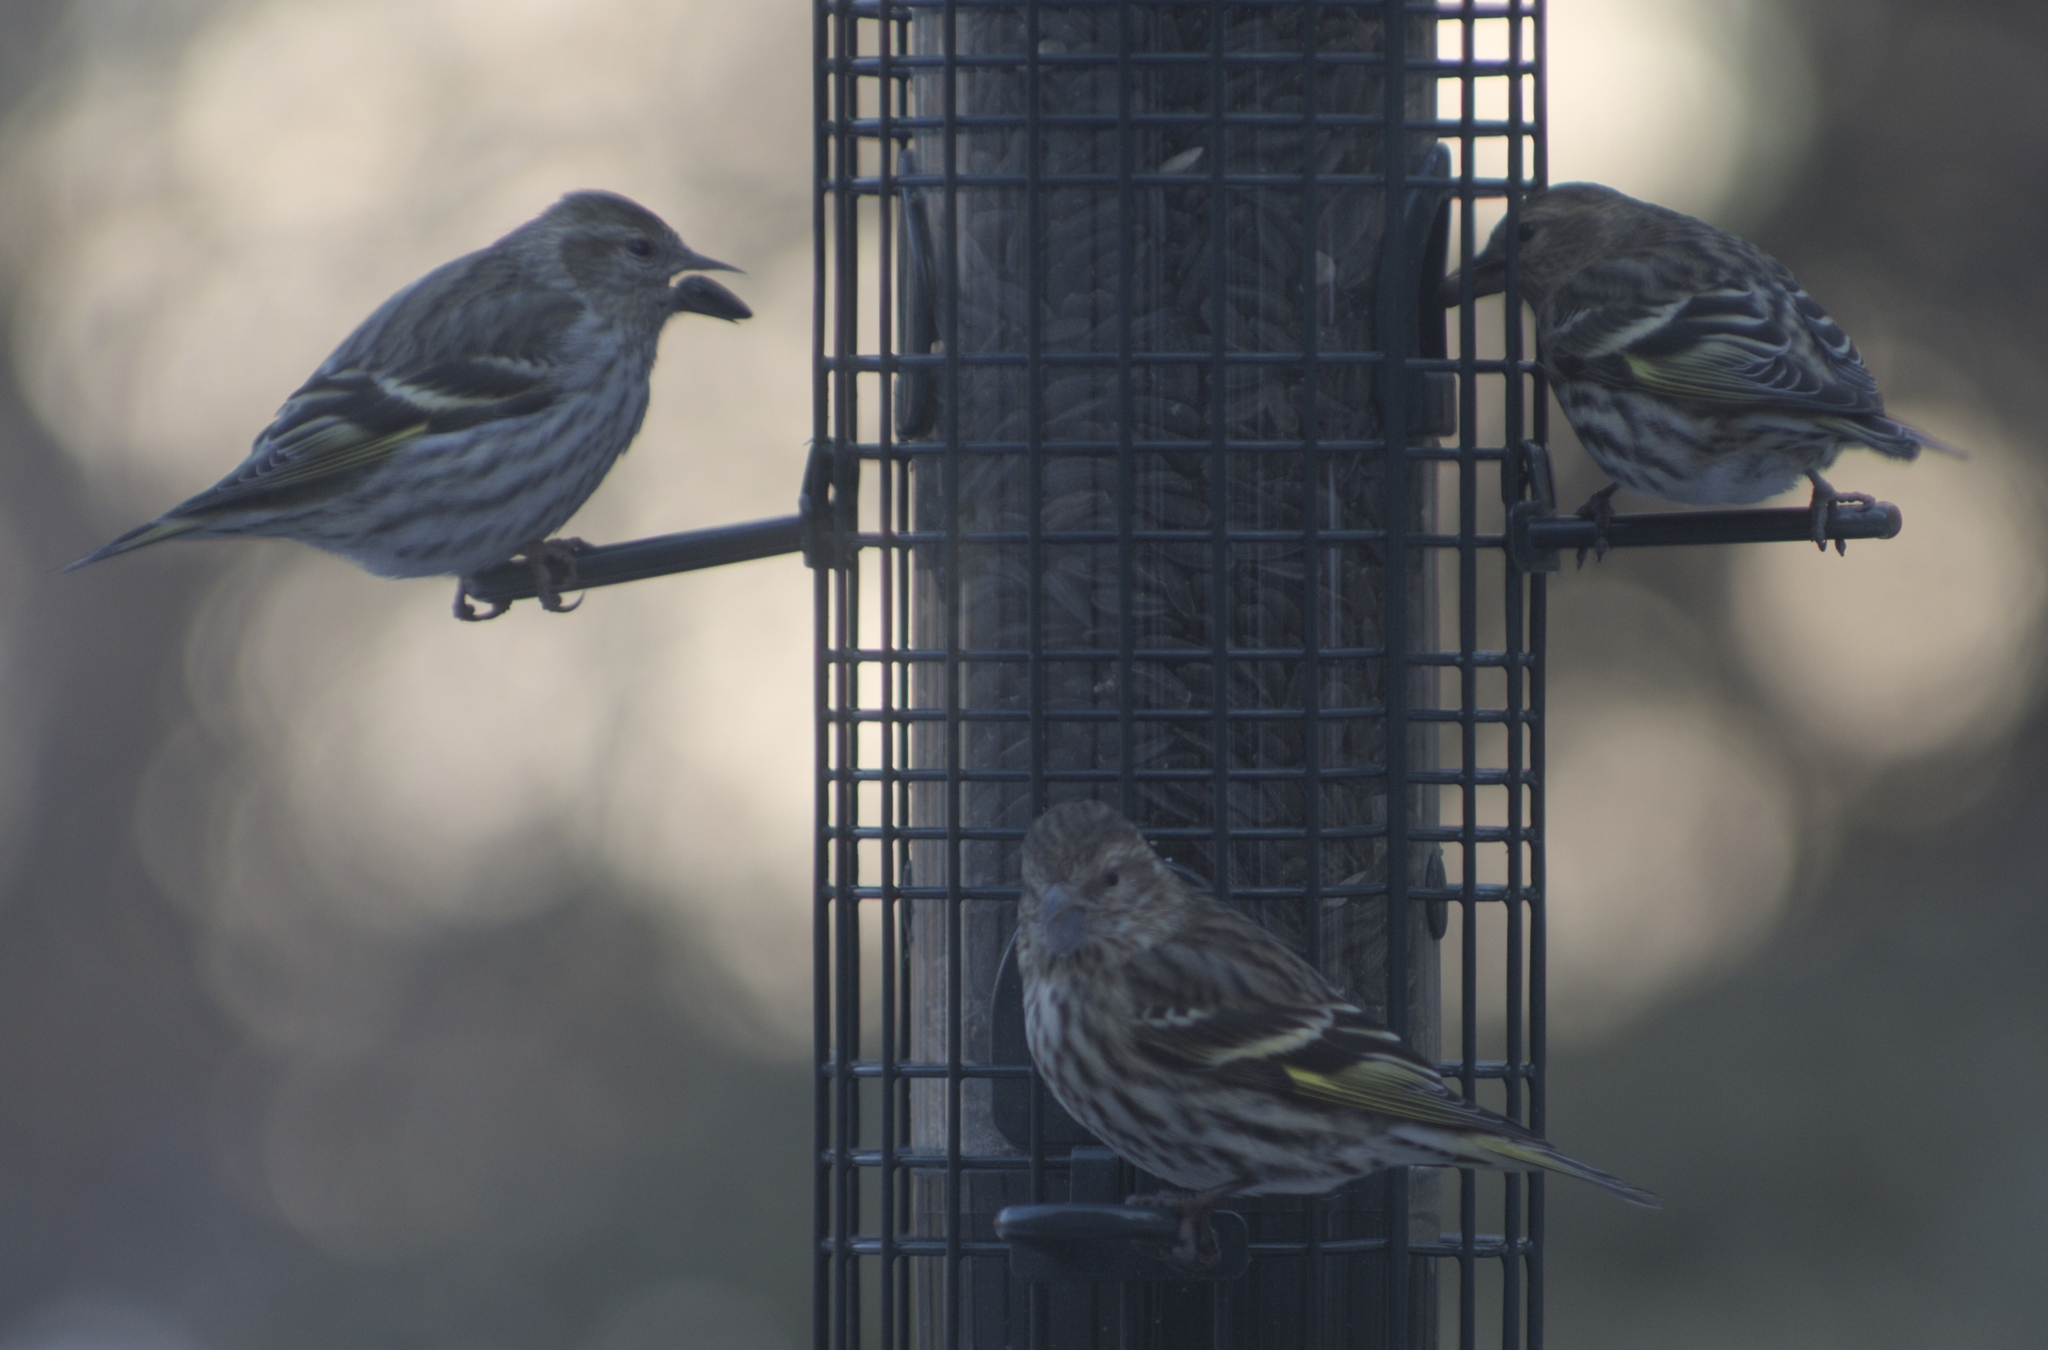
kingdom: Animalia
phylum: Chordata
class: Aves
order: Passeriformes
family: Fringillidae
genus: Spinus
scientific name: Spinus pinus
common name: Pine siskin
